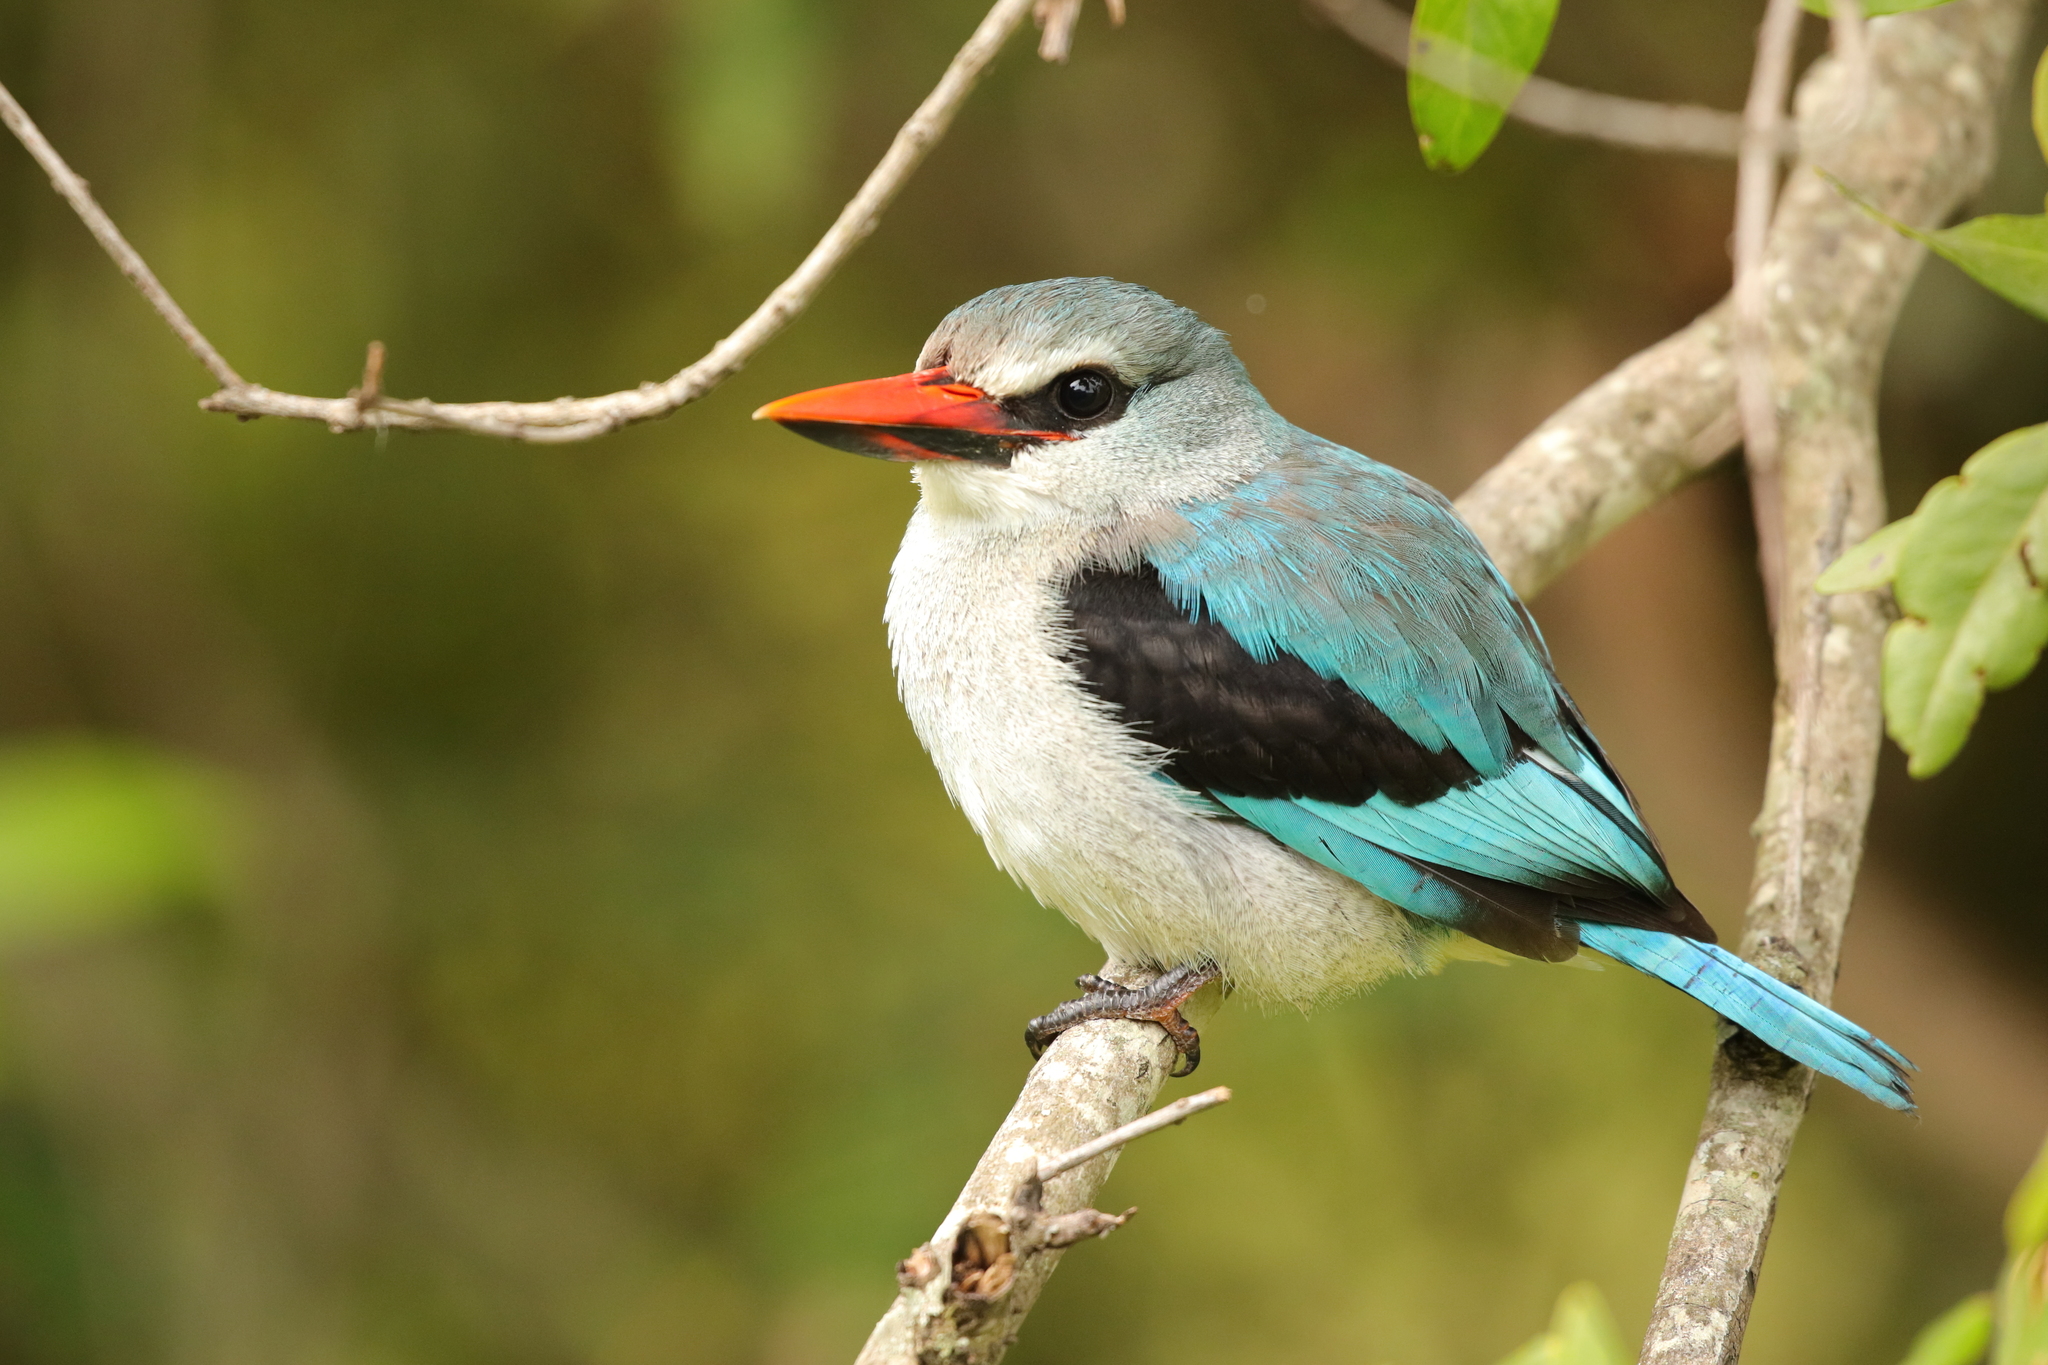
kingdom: Animalia
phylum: Chordata
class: Aves
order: Coraciiformes
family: Alcedinidae
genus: Halcyon
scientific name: Halcyon senegalensis
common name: Woodland kingfisher
